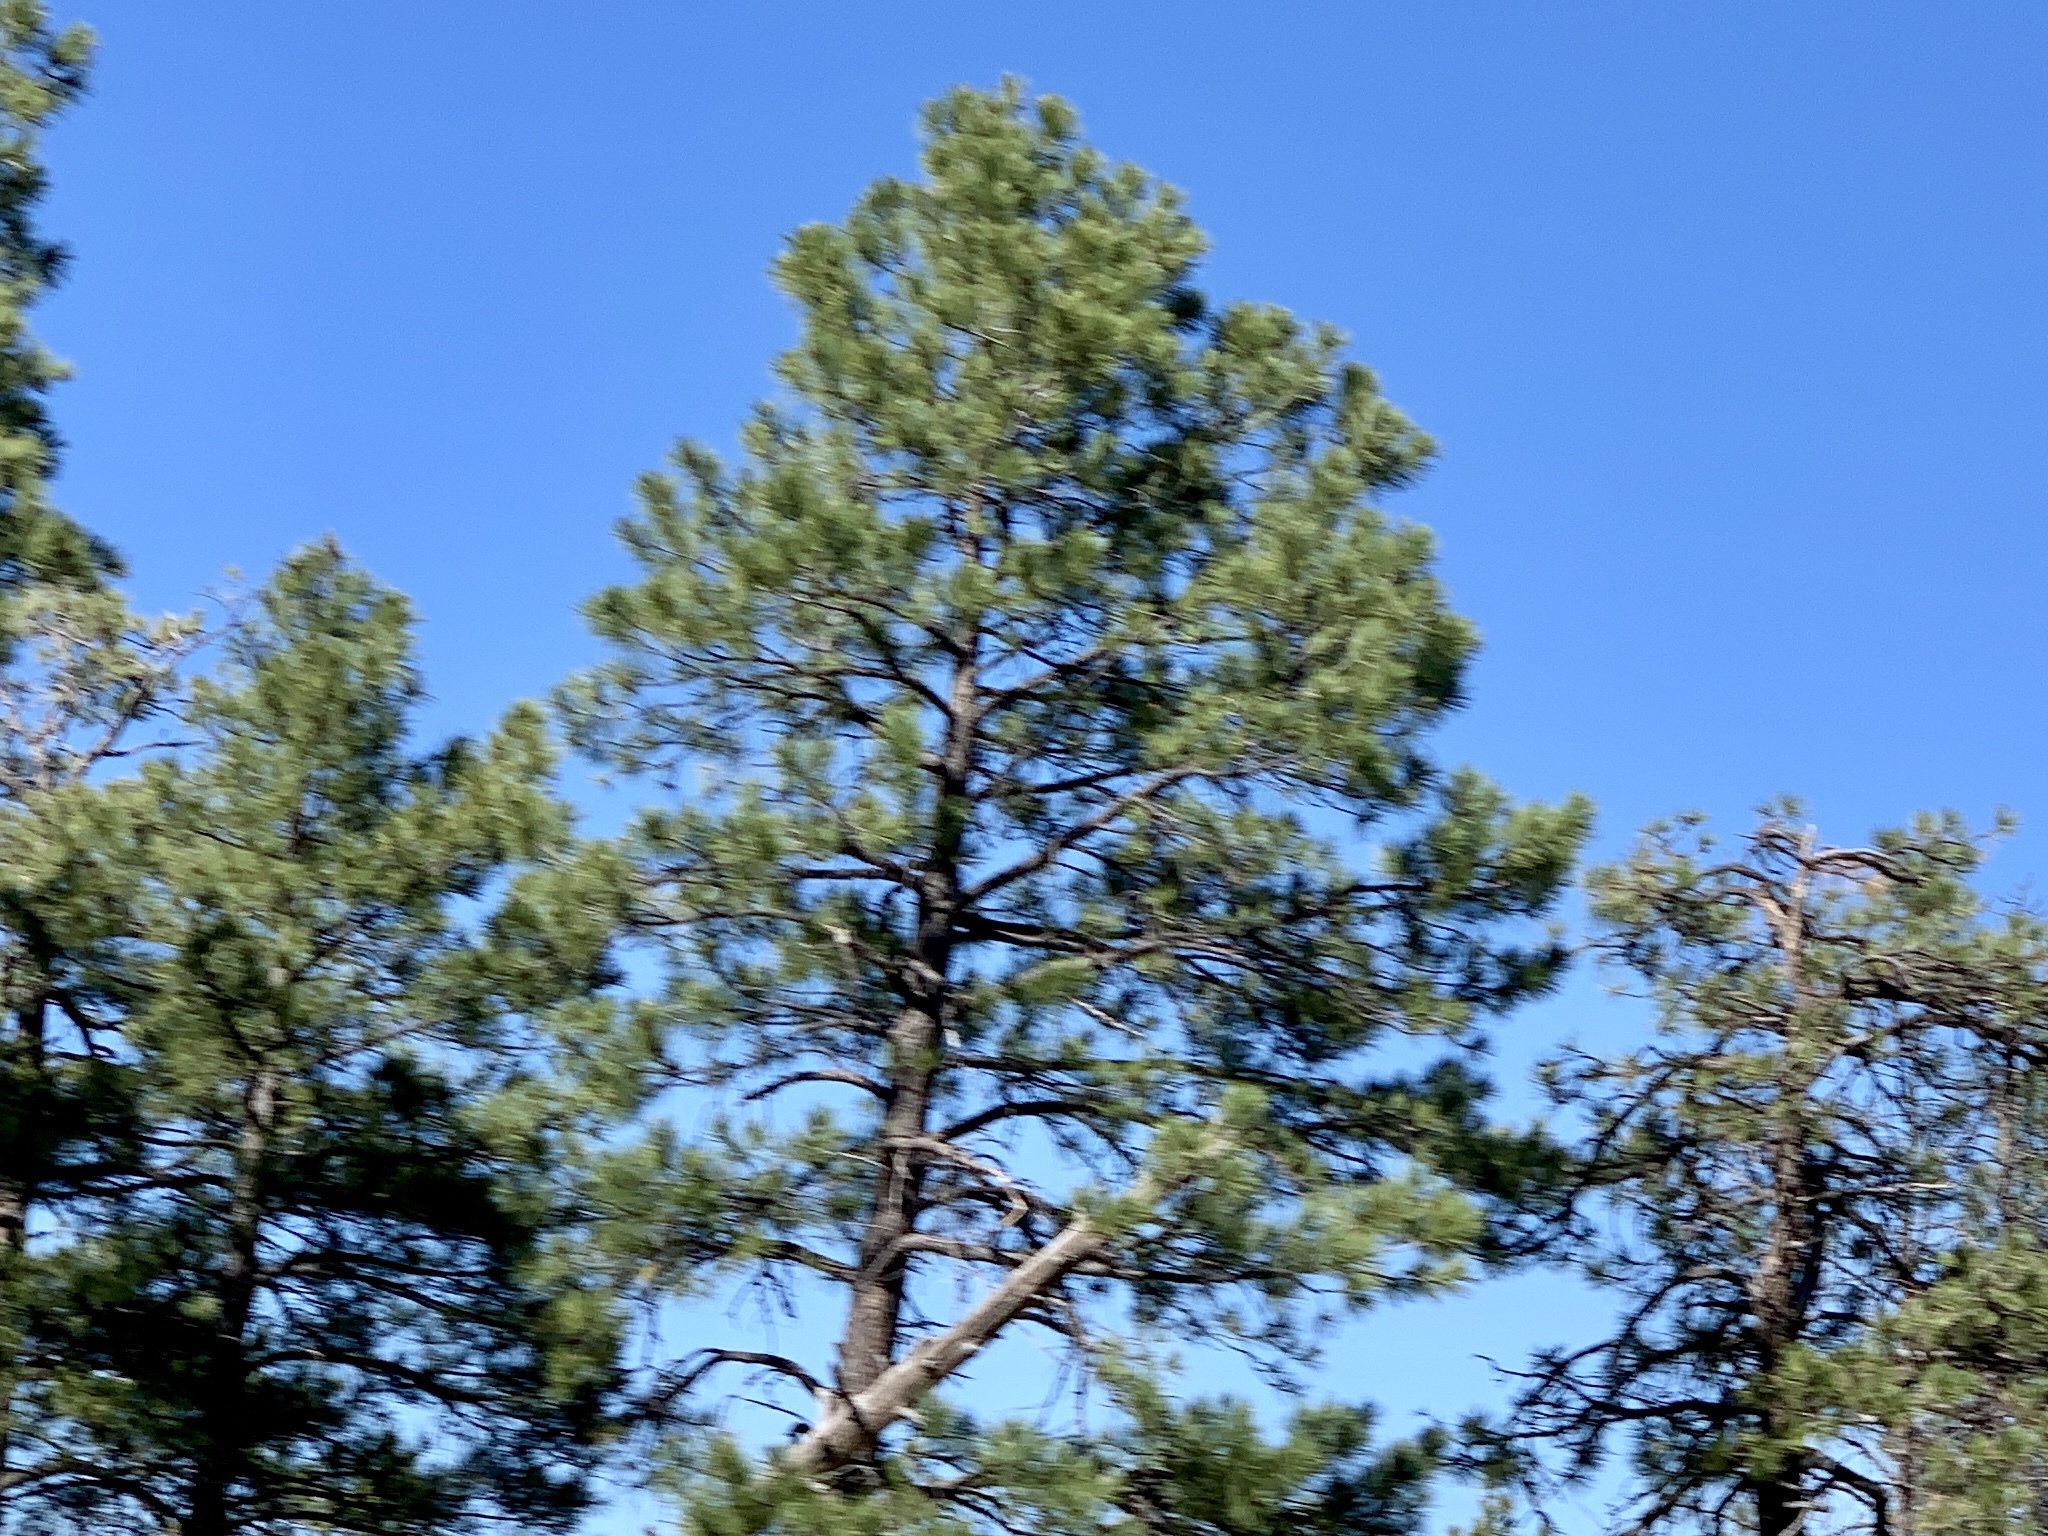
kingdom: Plantae
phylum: Tracheophyta
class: Pinopsida
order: Pinales
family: Pinaceae
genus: Pinus
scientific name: Pinus ponderosa
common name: Western yellow-pine
